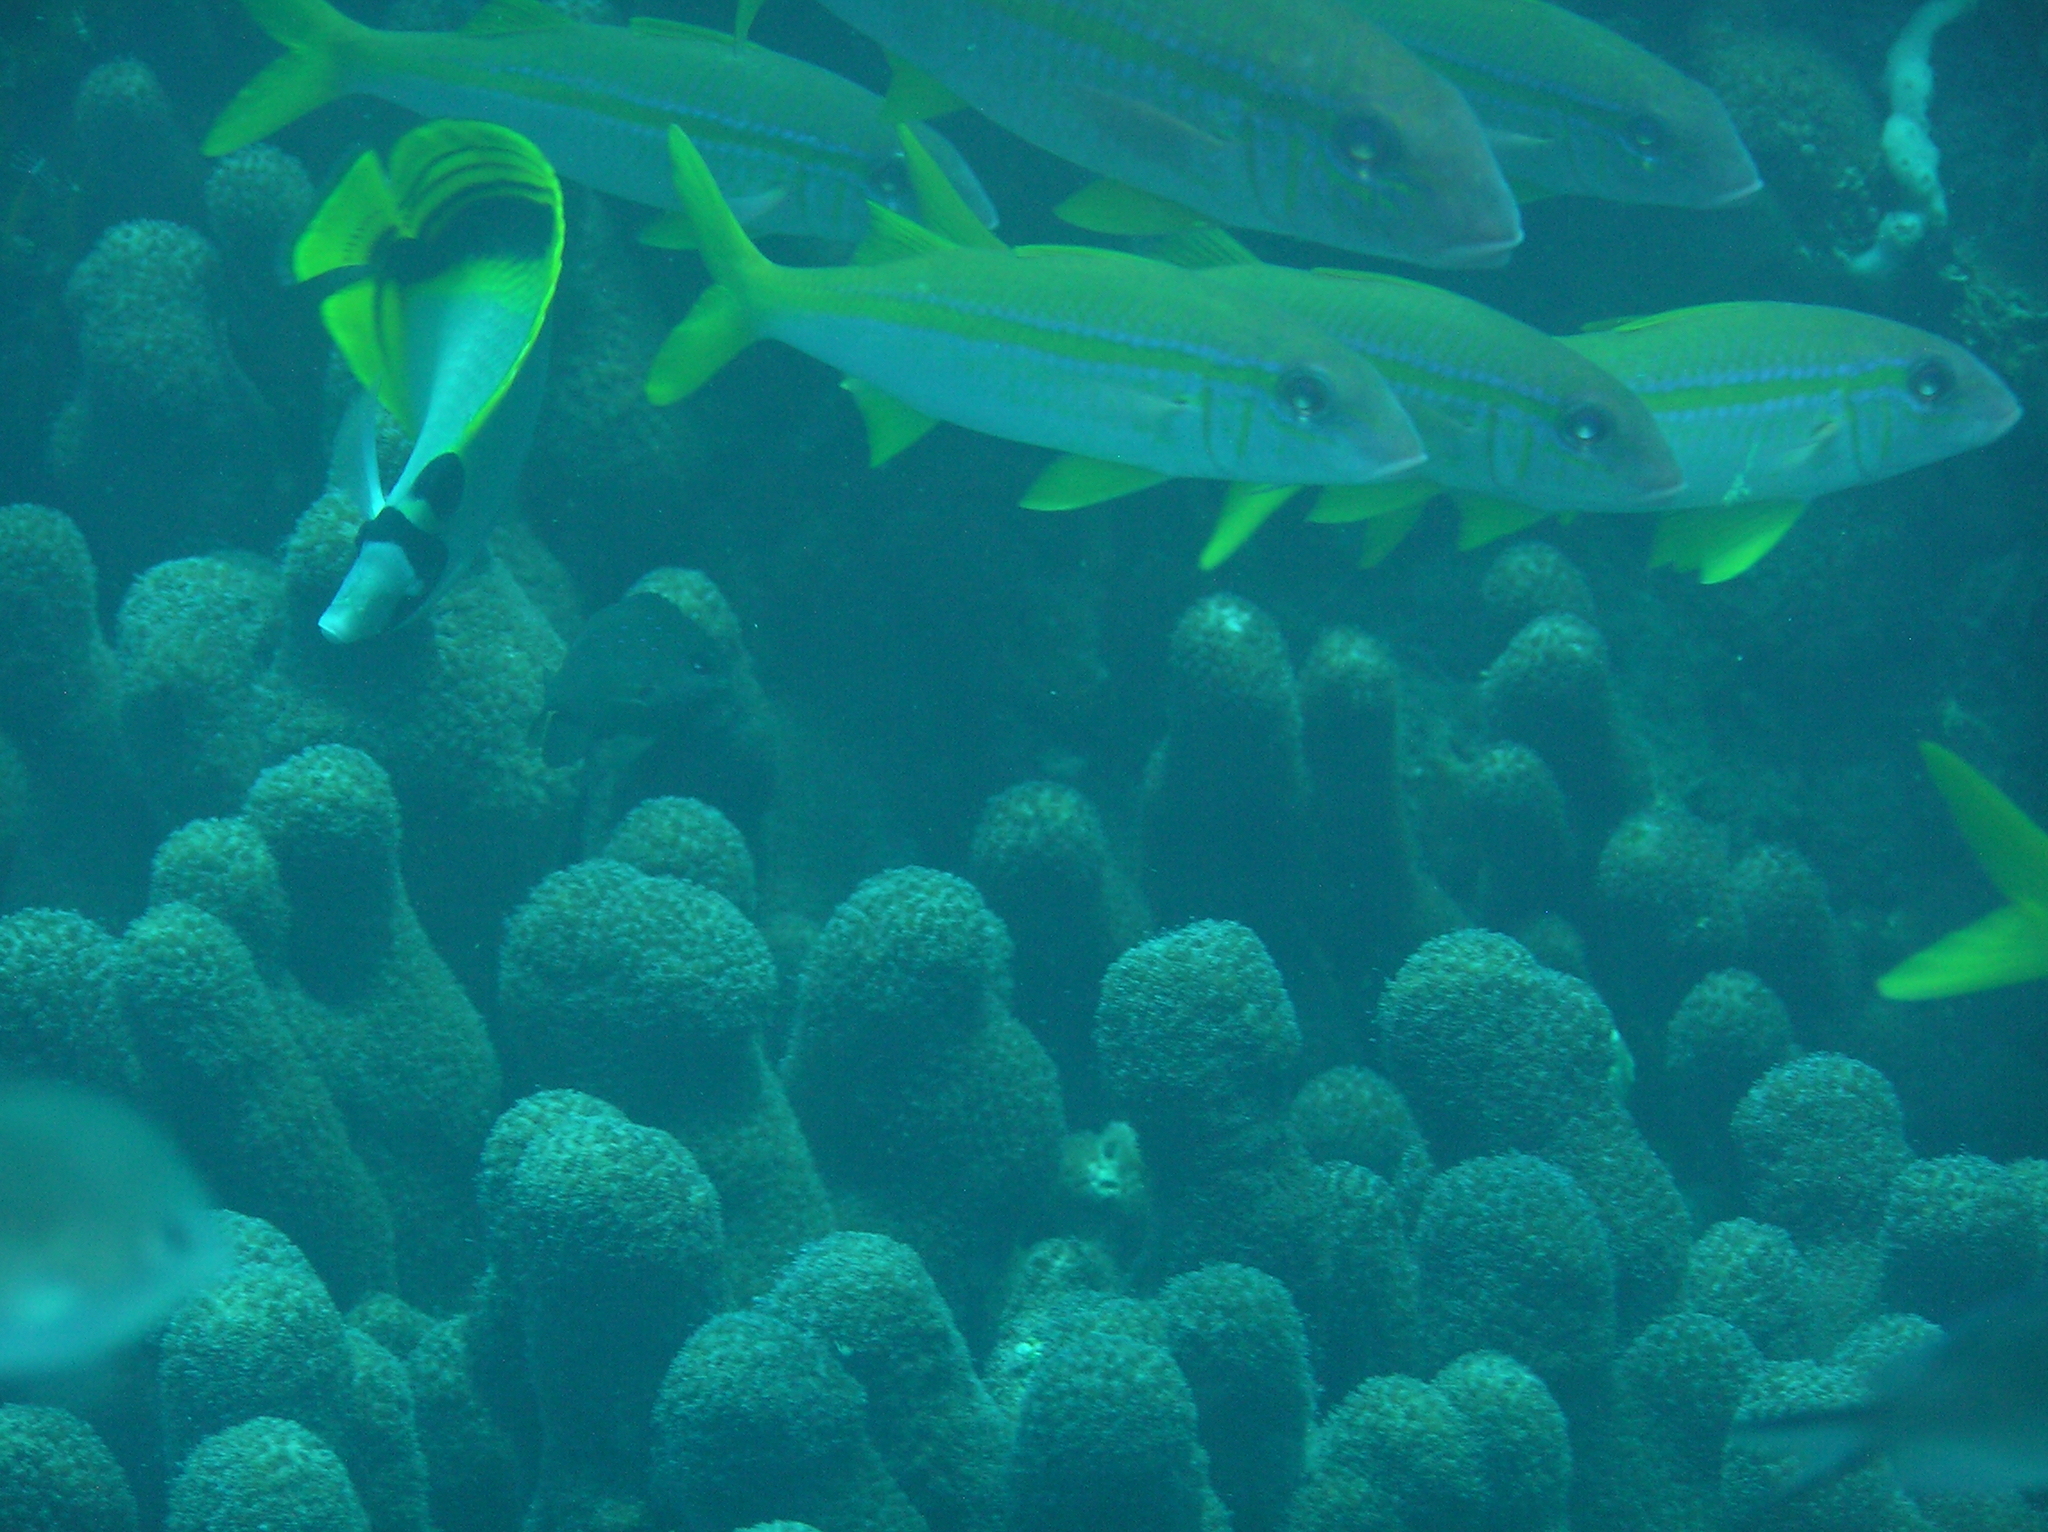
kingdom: Animalia
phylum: Chordata
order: Perciformes
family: Chaetodontidae
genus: Chaetodon
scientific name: Chaetodon oxycephalus
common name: Spot-nape butterflyfish
